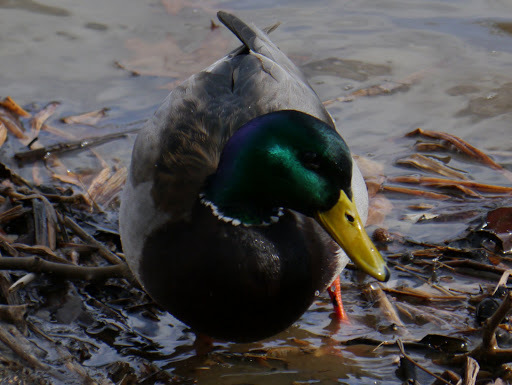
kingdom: Animalia
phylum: Chordata
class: Aves
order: Anseriformes
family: Anatidae
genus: Anas
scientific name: Anas platyrhynchos
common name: Mallard
